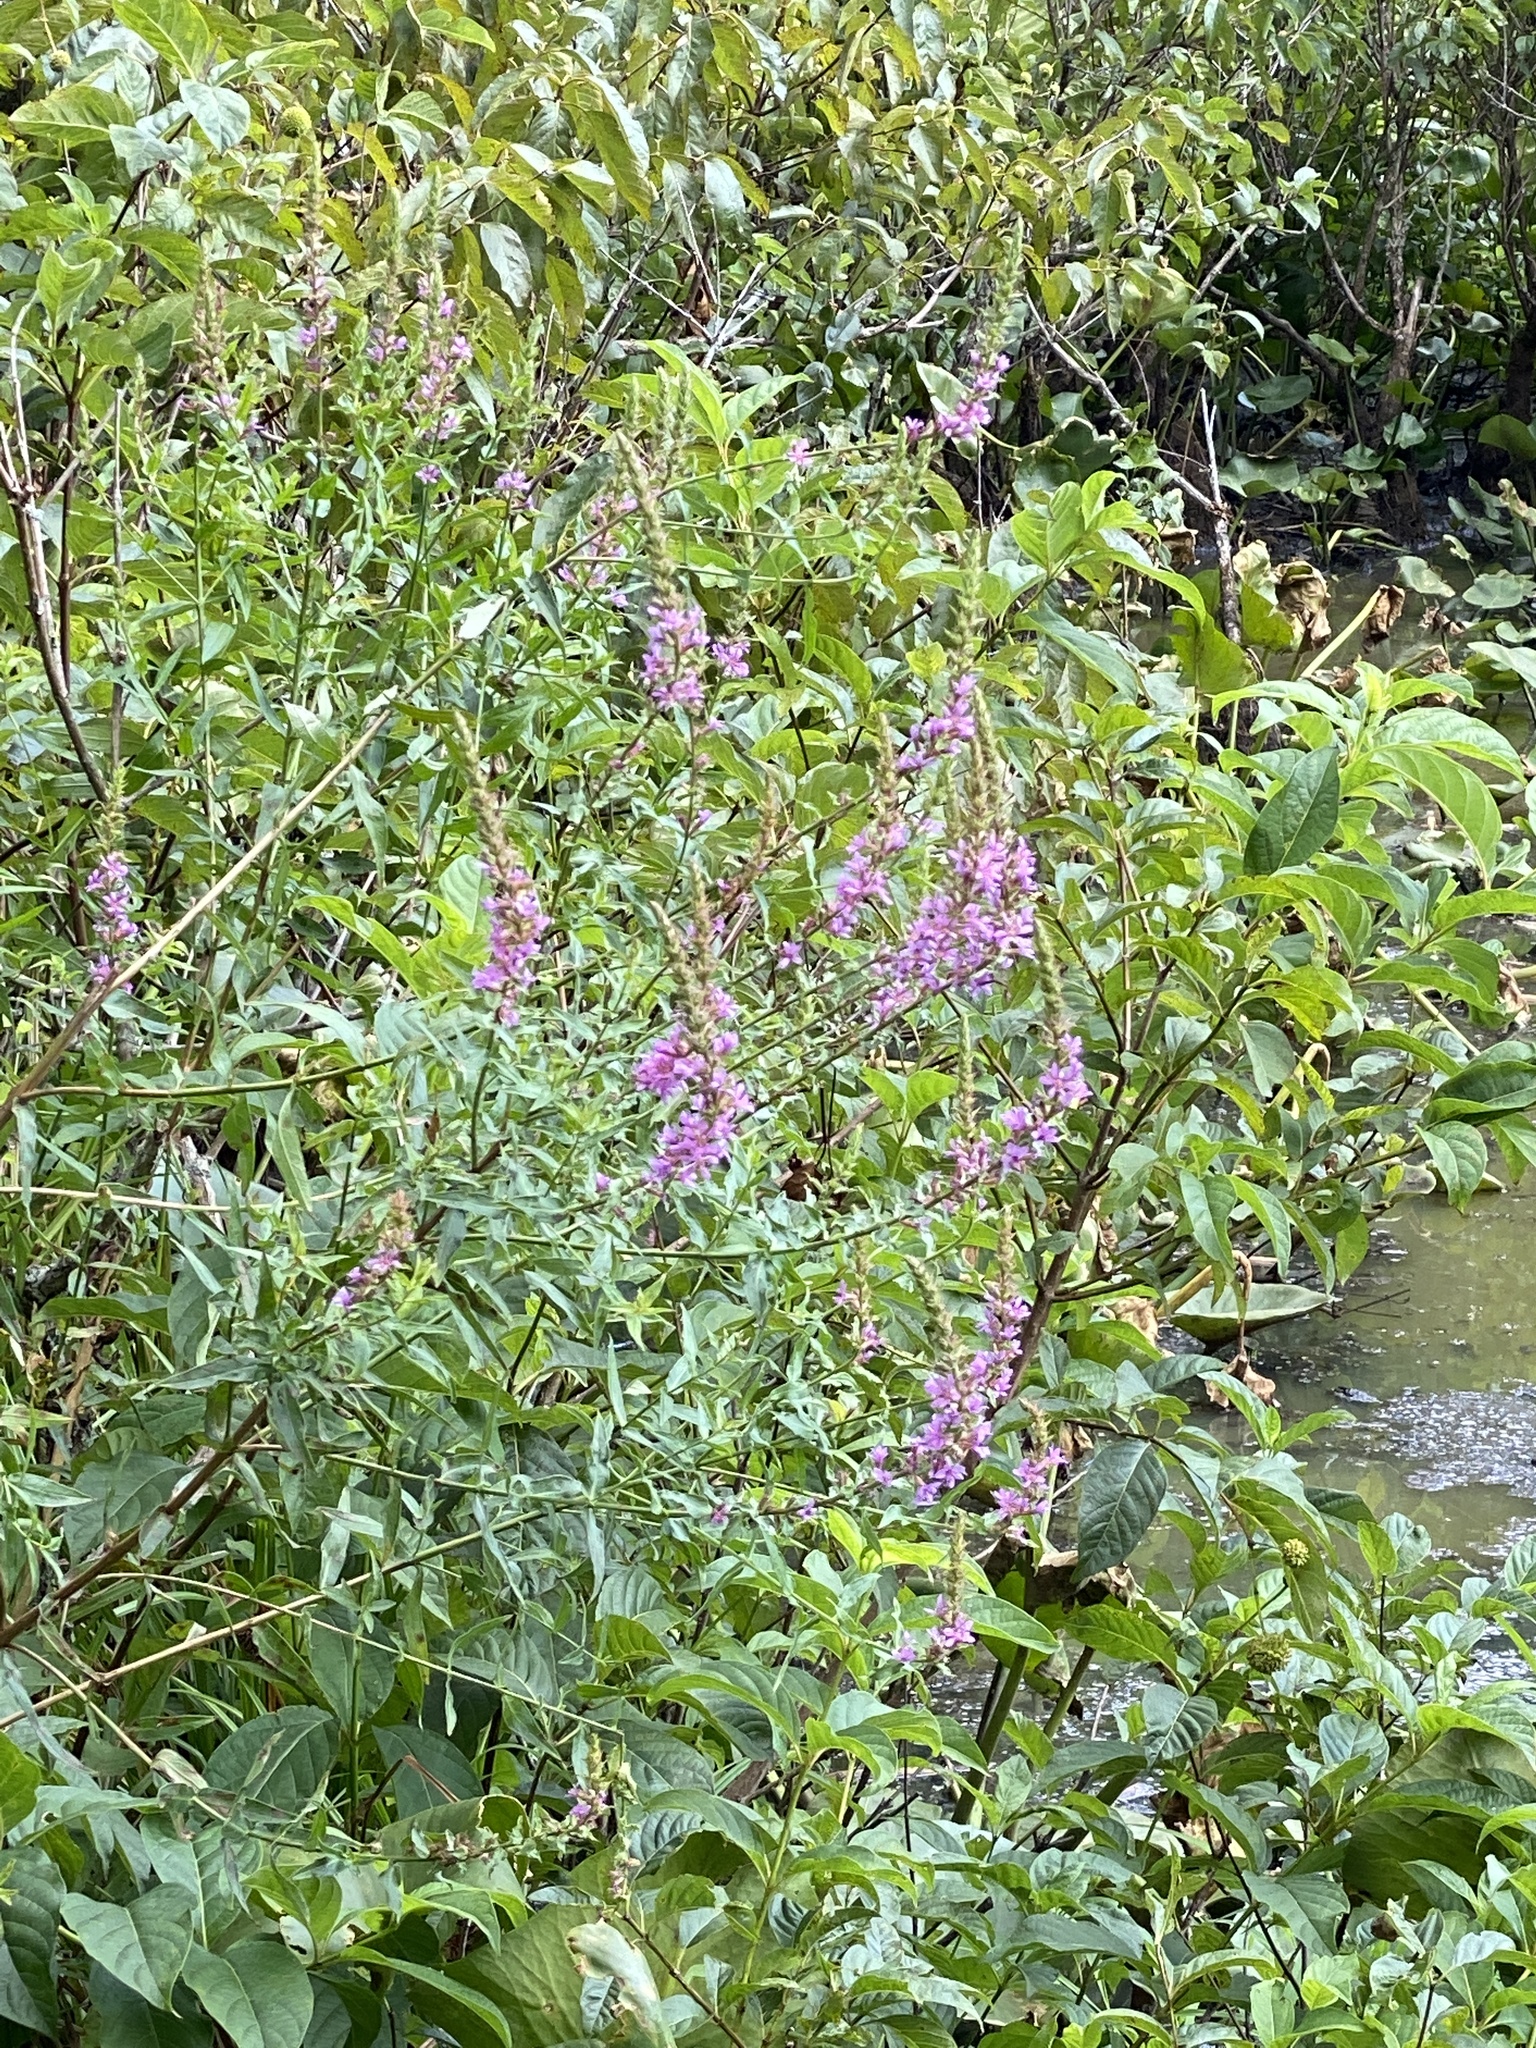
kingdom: Plantae
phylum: Tracheophyta
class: Magnoliopsida
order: Myrtales
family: Lythraceae
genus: Lythrum
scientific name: Lythrum salicaria
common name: Purple loosestrife
